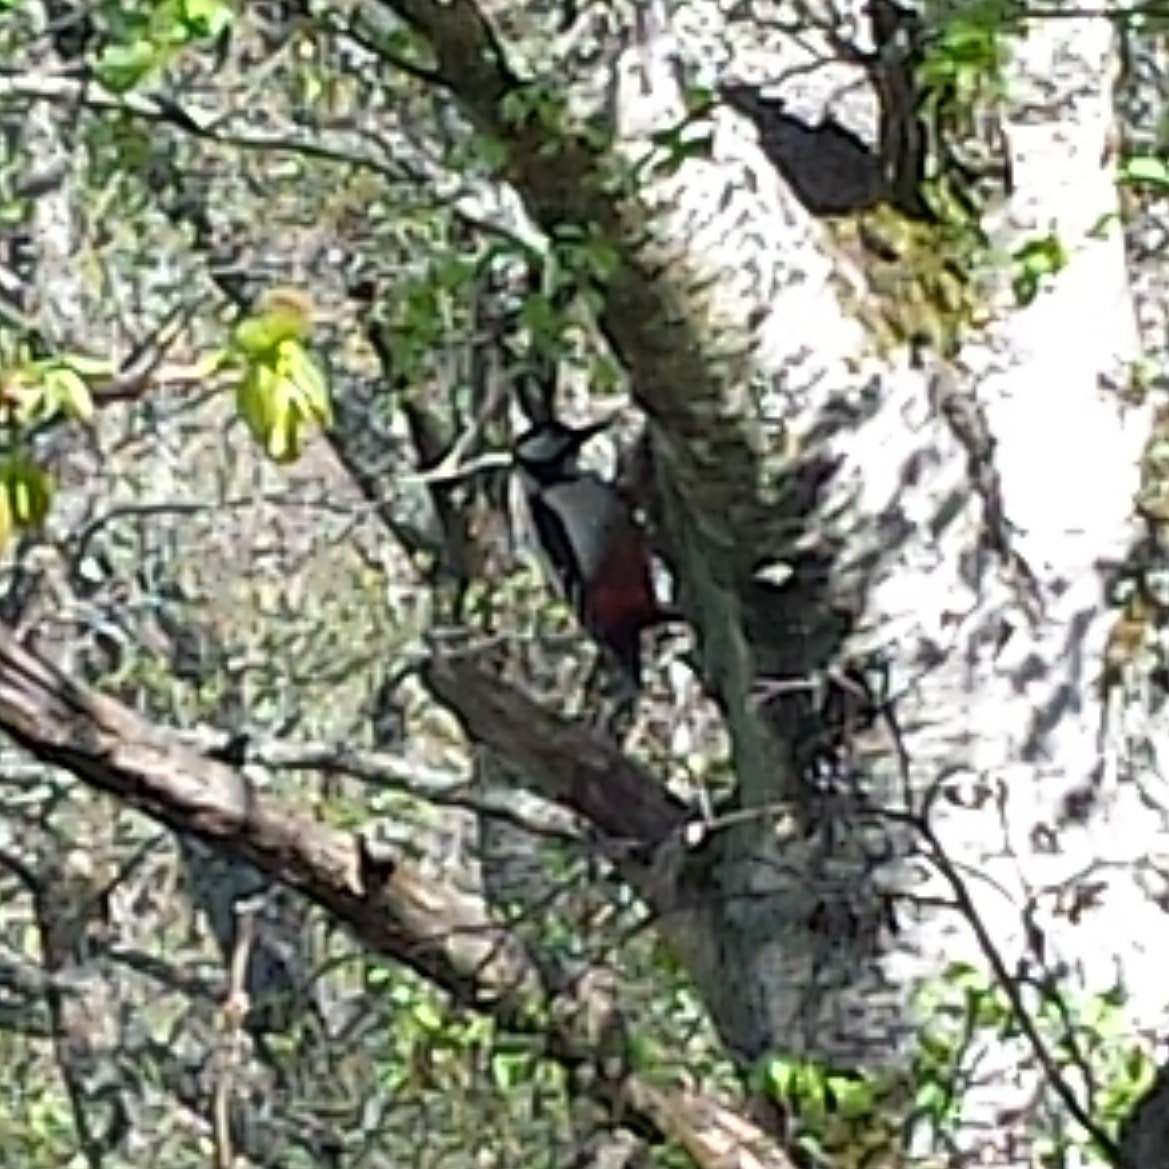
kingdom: Animalia
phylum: Chordata
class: Aves
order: Piciformes
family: Picidae
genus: Dendrocopos
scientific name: Dendrocopos major
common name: Great spotted woodpecker
